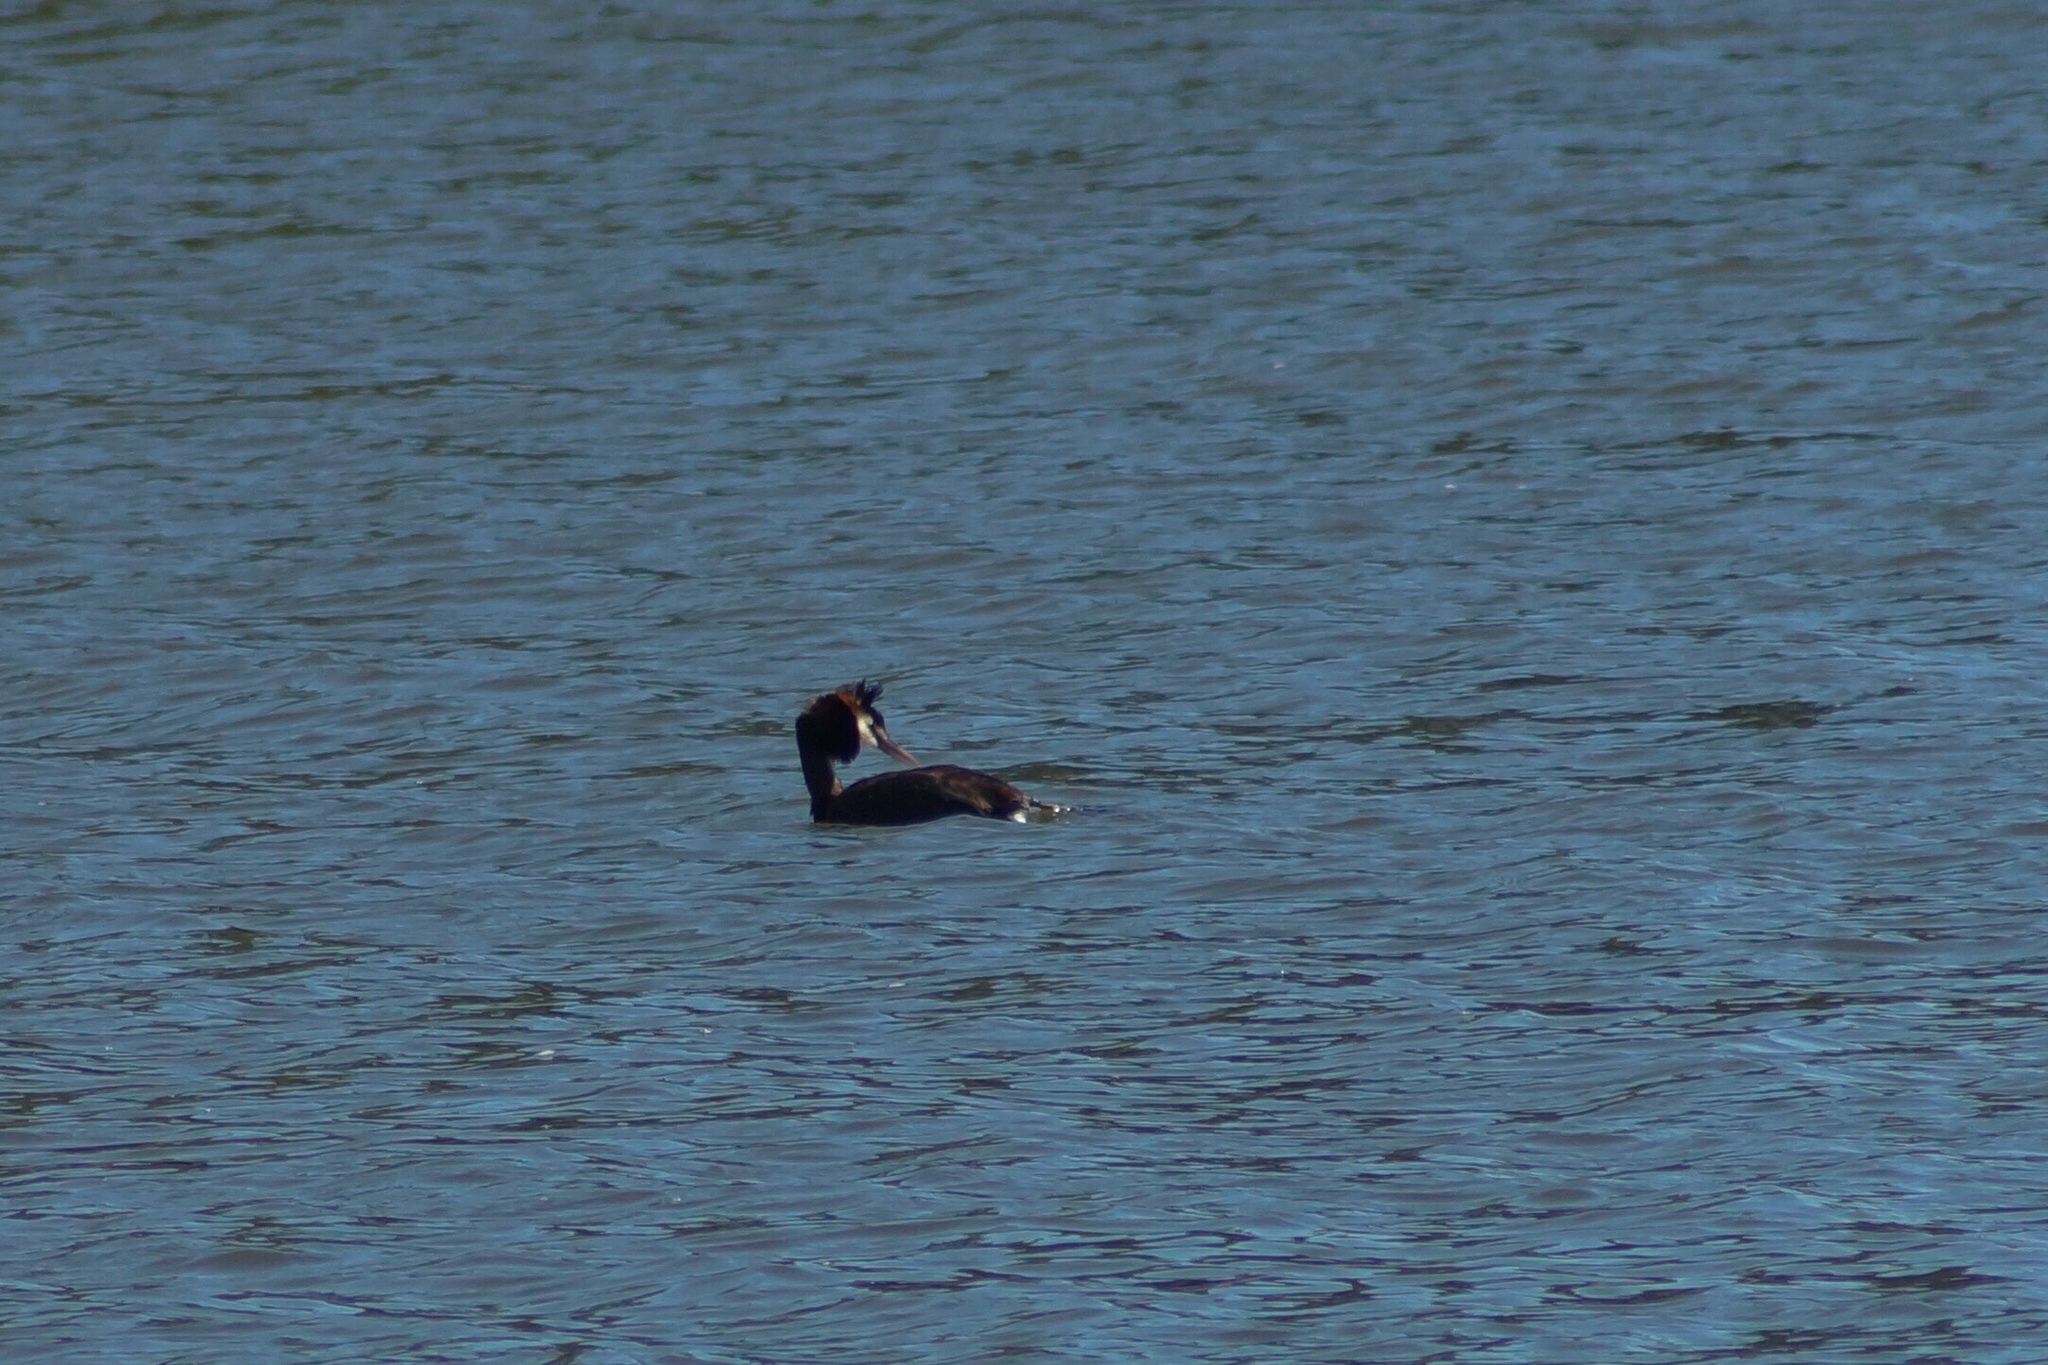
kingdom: Animalia
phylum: Chordata
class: Aves
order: Podicipediformes
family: Podicipedidae
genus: Podiceps
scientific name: Podiceps cristatus
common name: Great crested grebe
